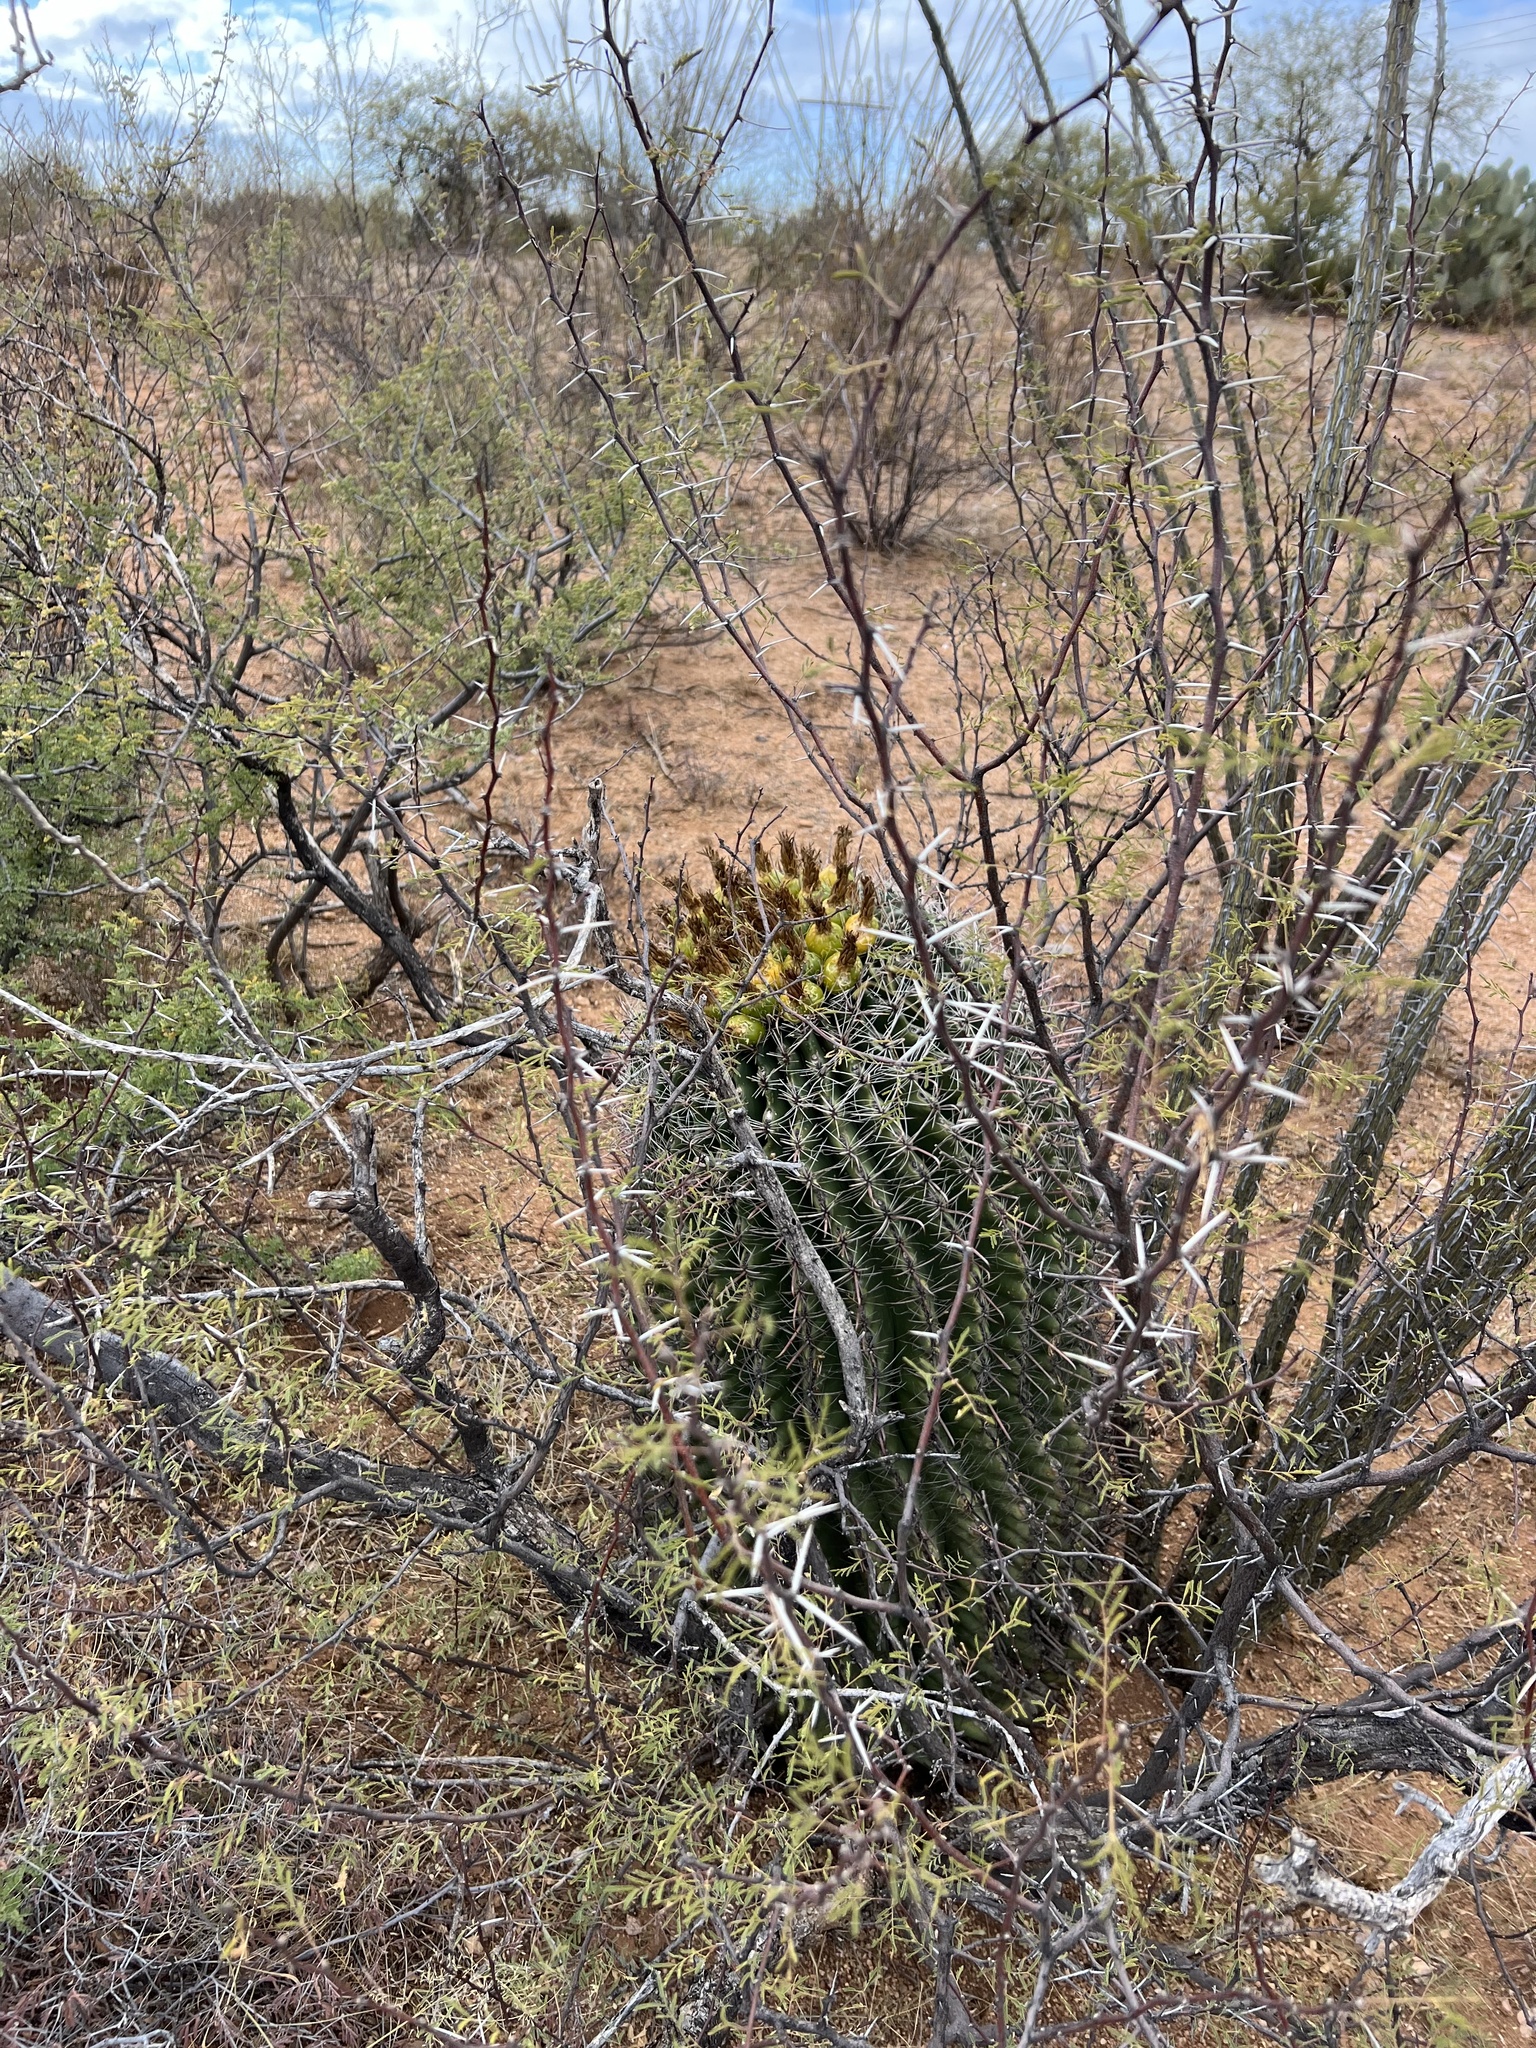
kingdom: Plantae
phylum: Tracheophyta
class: Magnoliopsida
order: Caryophyllales
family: Cactaceae
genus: Ferocactus
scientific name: Ferocactus wislizeni
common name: Candy barrel cactus
